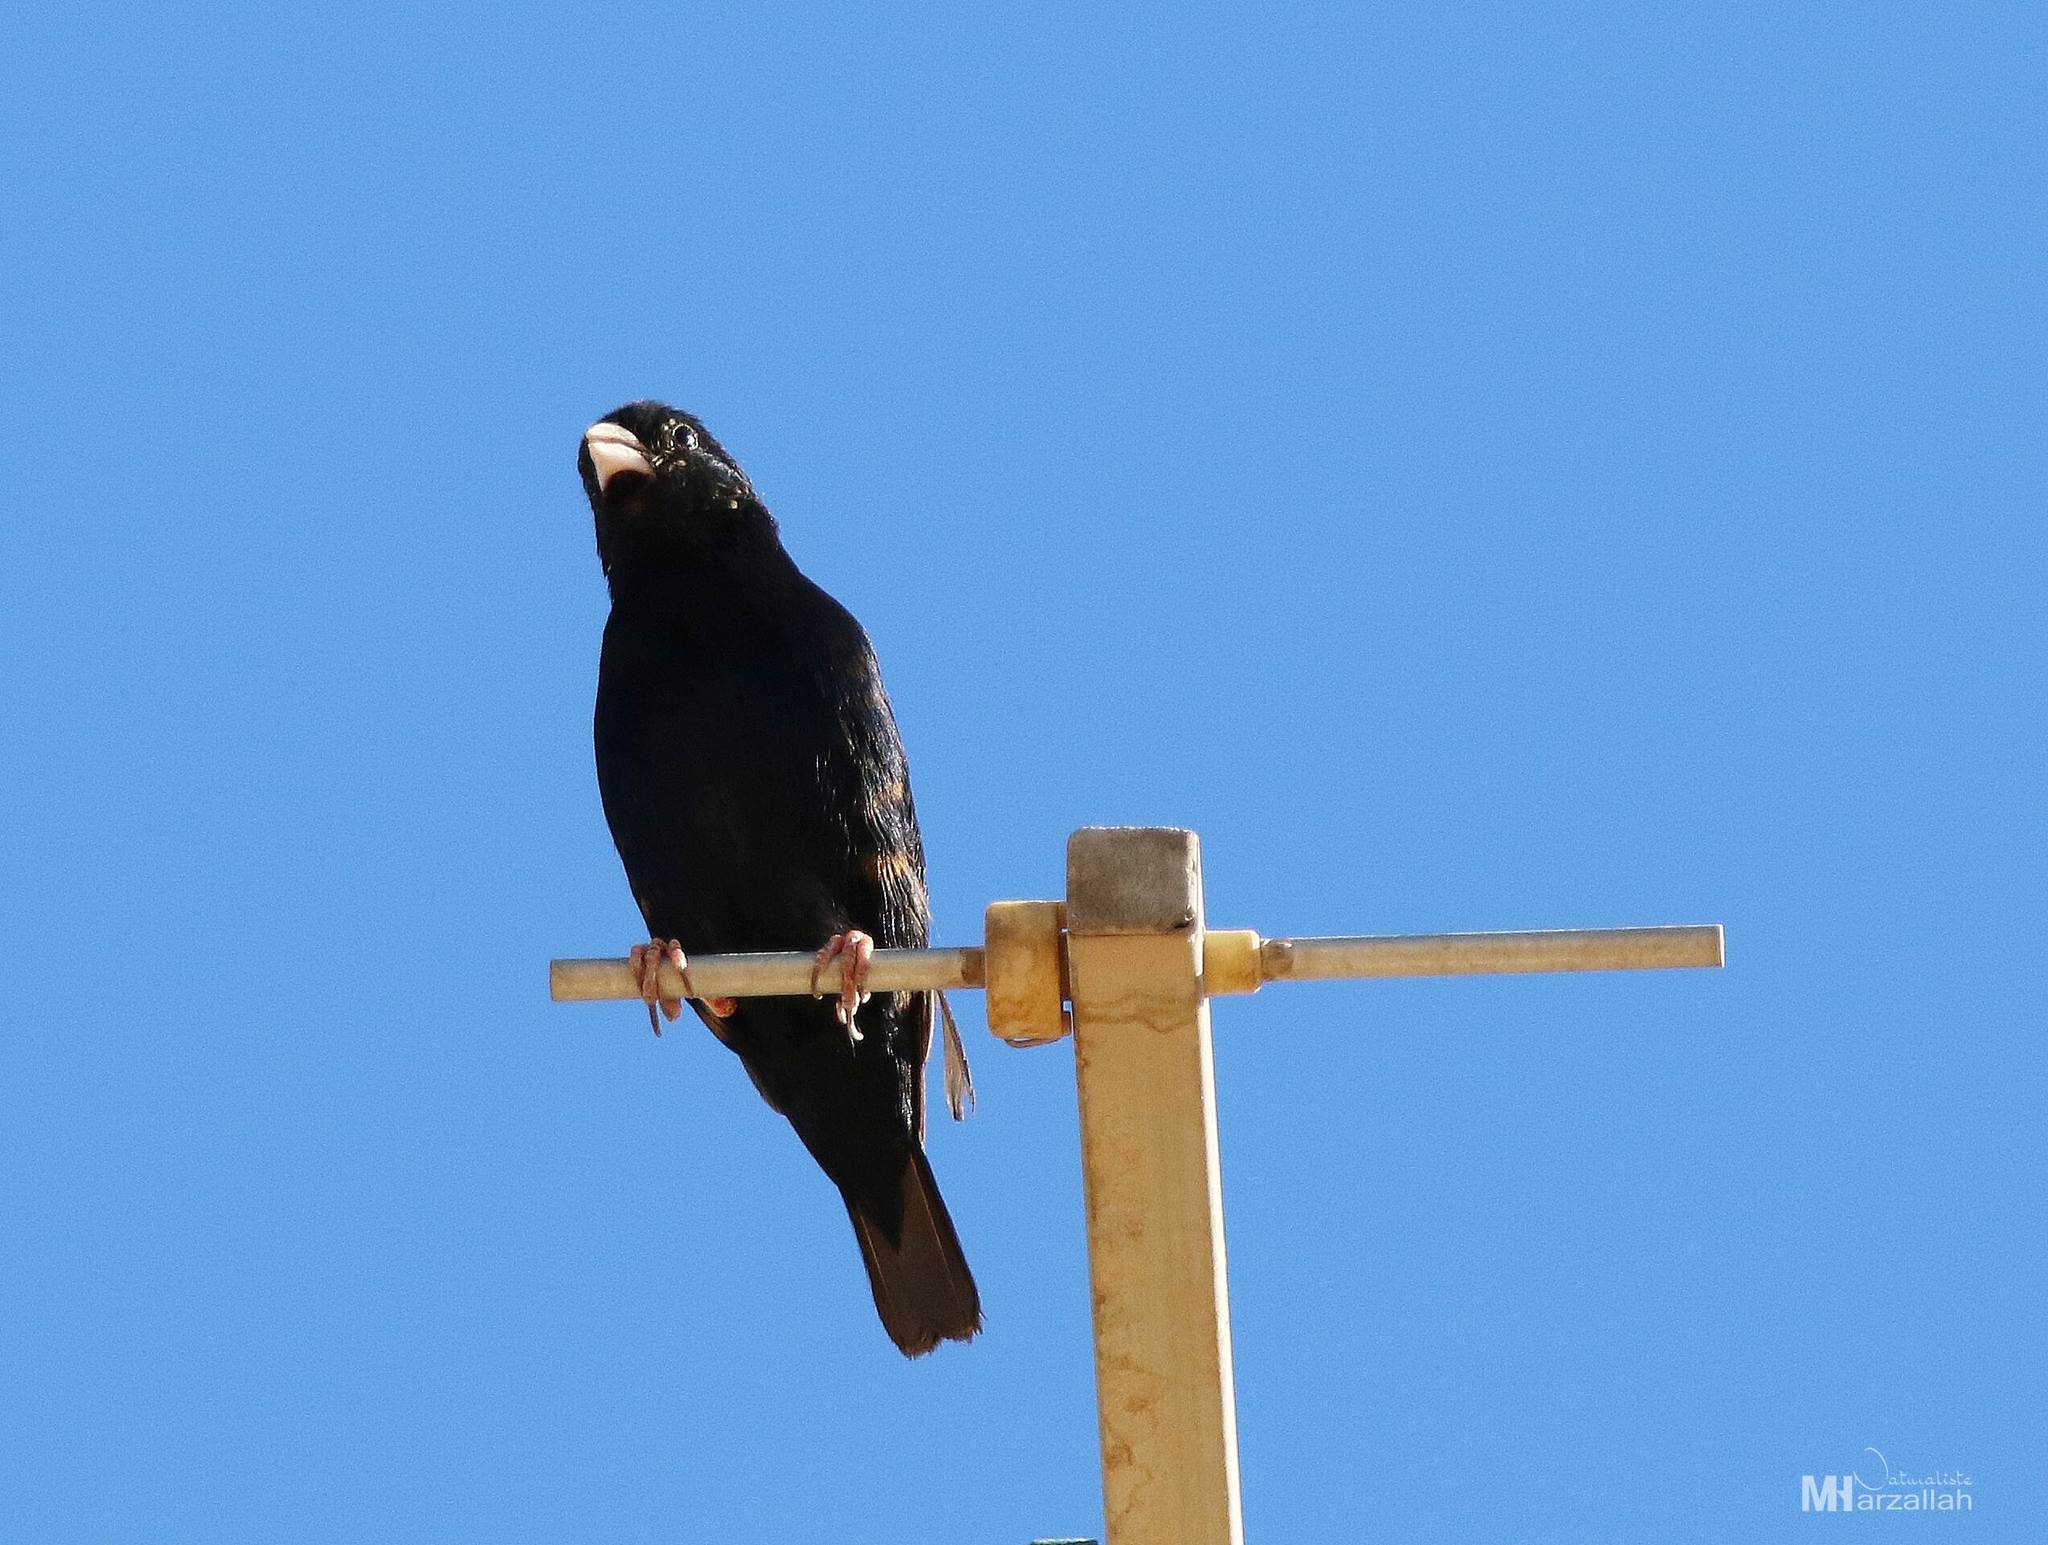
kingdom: Animalia
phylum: Chordata
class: Aves
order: Passeriformes
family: Viduidae
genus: Vidua
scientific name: Vidua chalybeata
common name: Village indigobird
